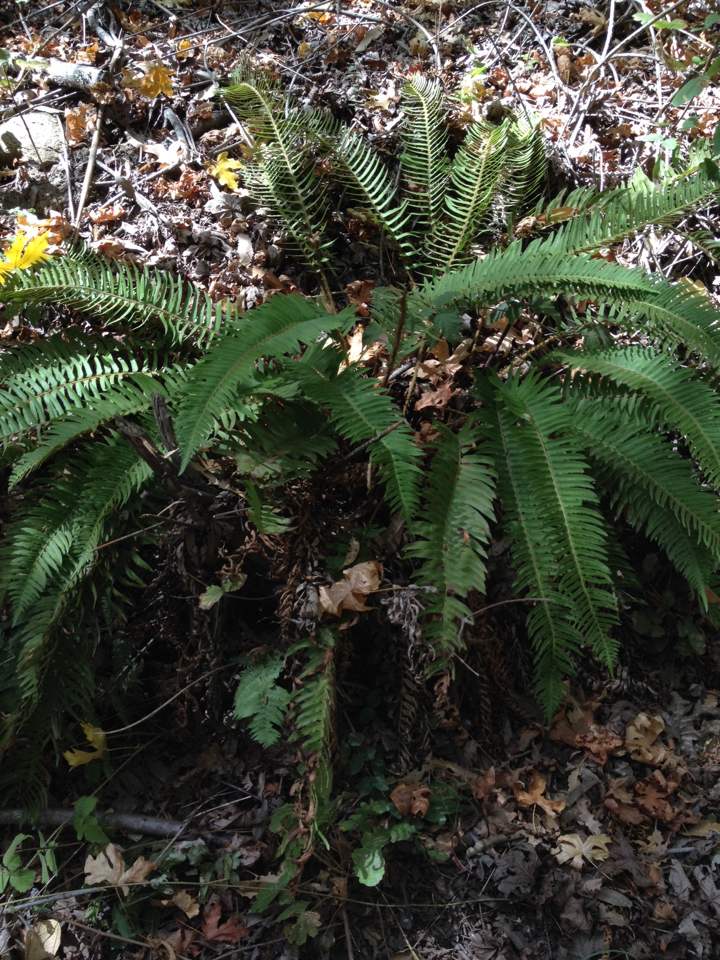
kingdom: Plantae
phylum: Tracheophyta
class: Polypodiopsida
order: Polypodiales
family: Dryopteridaceae
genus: Polystichum
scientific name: Polystichum munitum
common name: Western sword-fern
